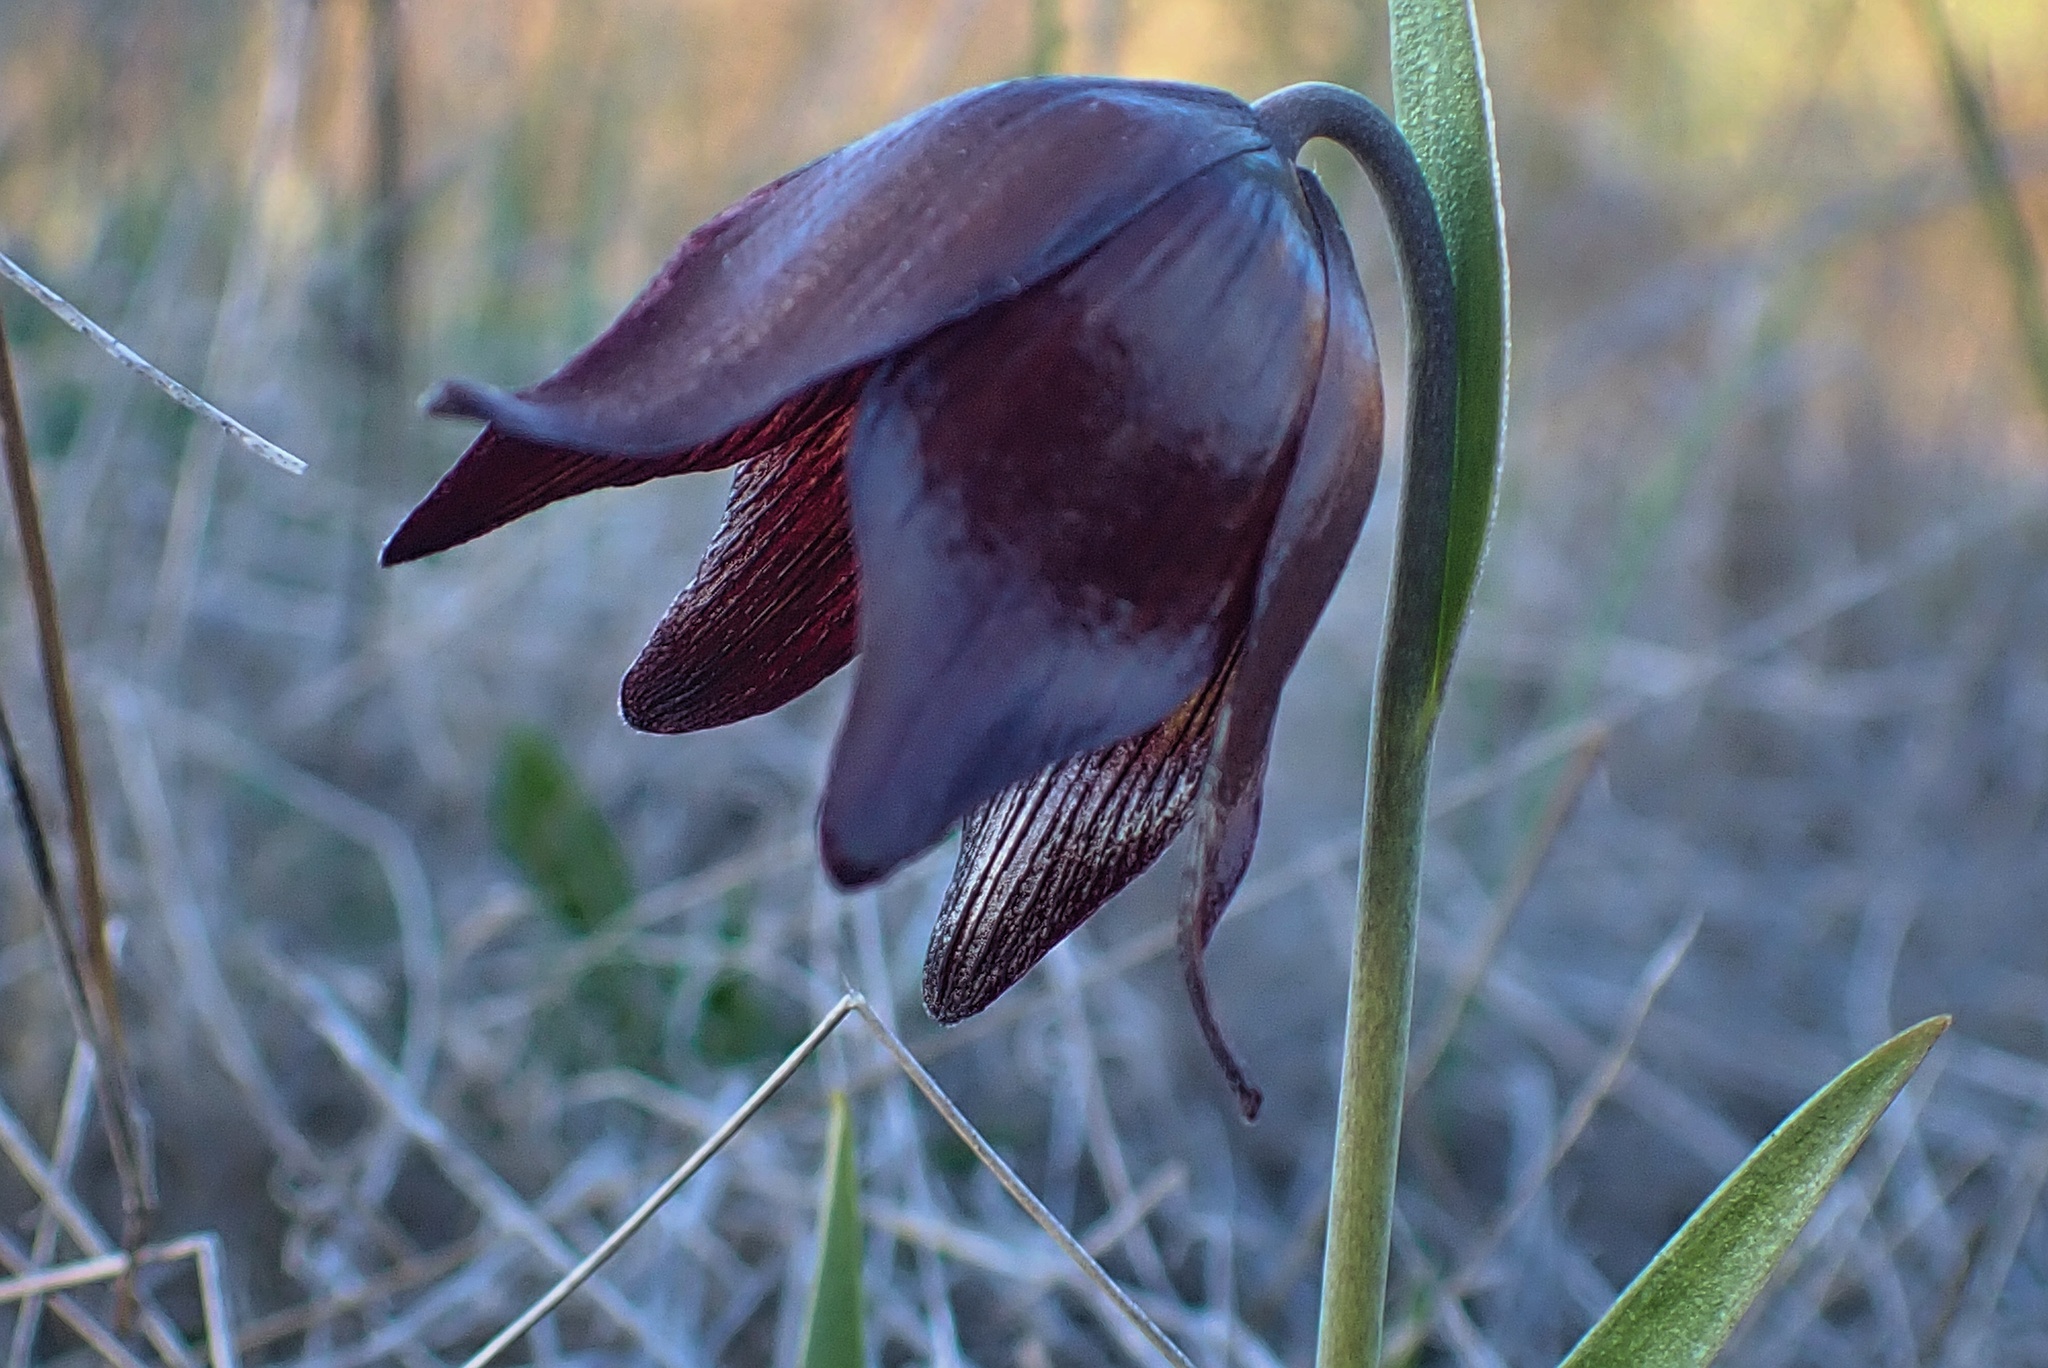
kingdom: Plantae
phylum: Tracheophyta
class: Liliopsida
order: Liliales
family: Liliaceae
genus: Fritillaria
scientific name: Fritillaria biflora
